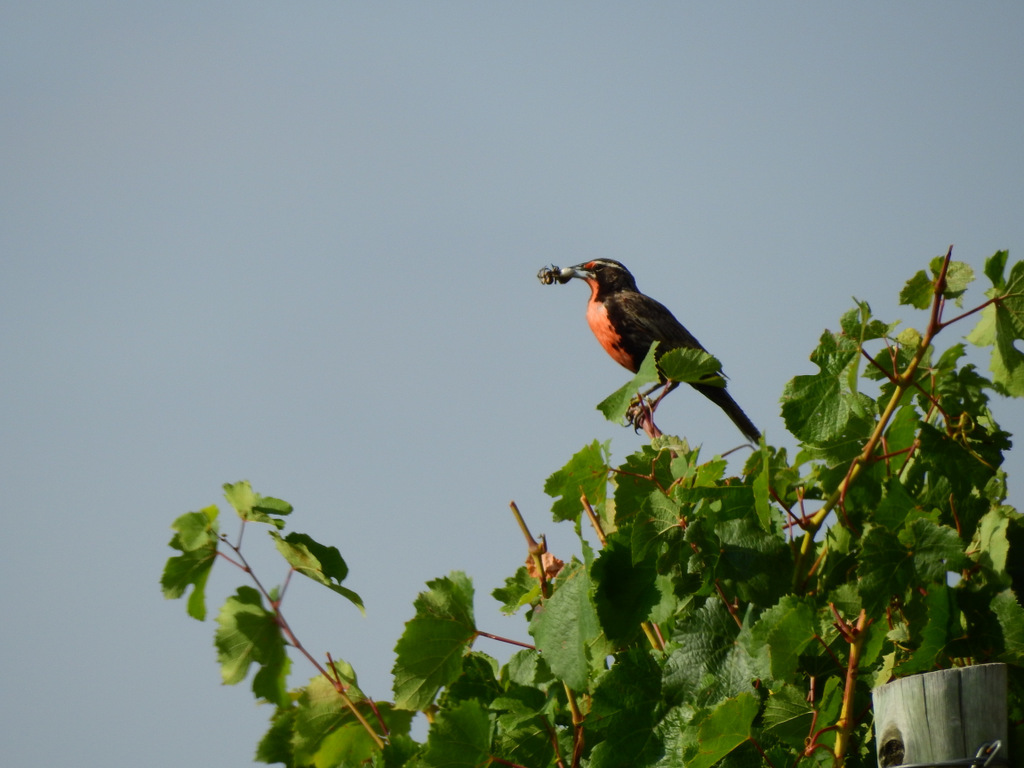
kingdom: Animalia
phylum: Chordata
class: Aves
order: Passeriformes
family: Icteridae
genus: Sturnella
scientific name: Sturnella loyca
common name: Long-tailed meadowlark
